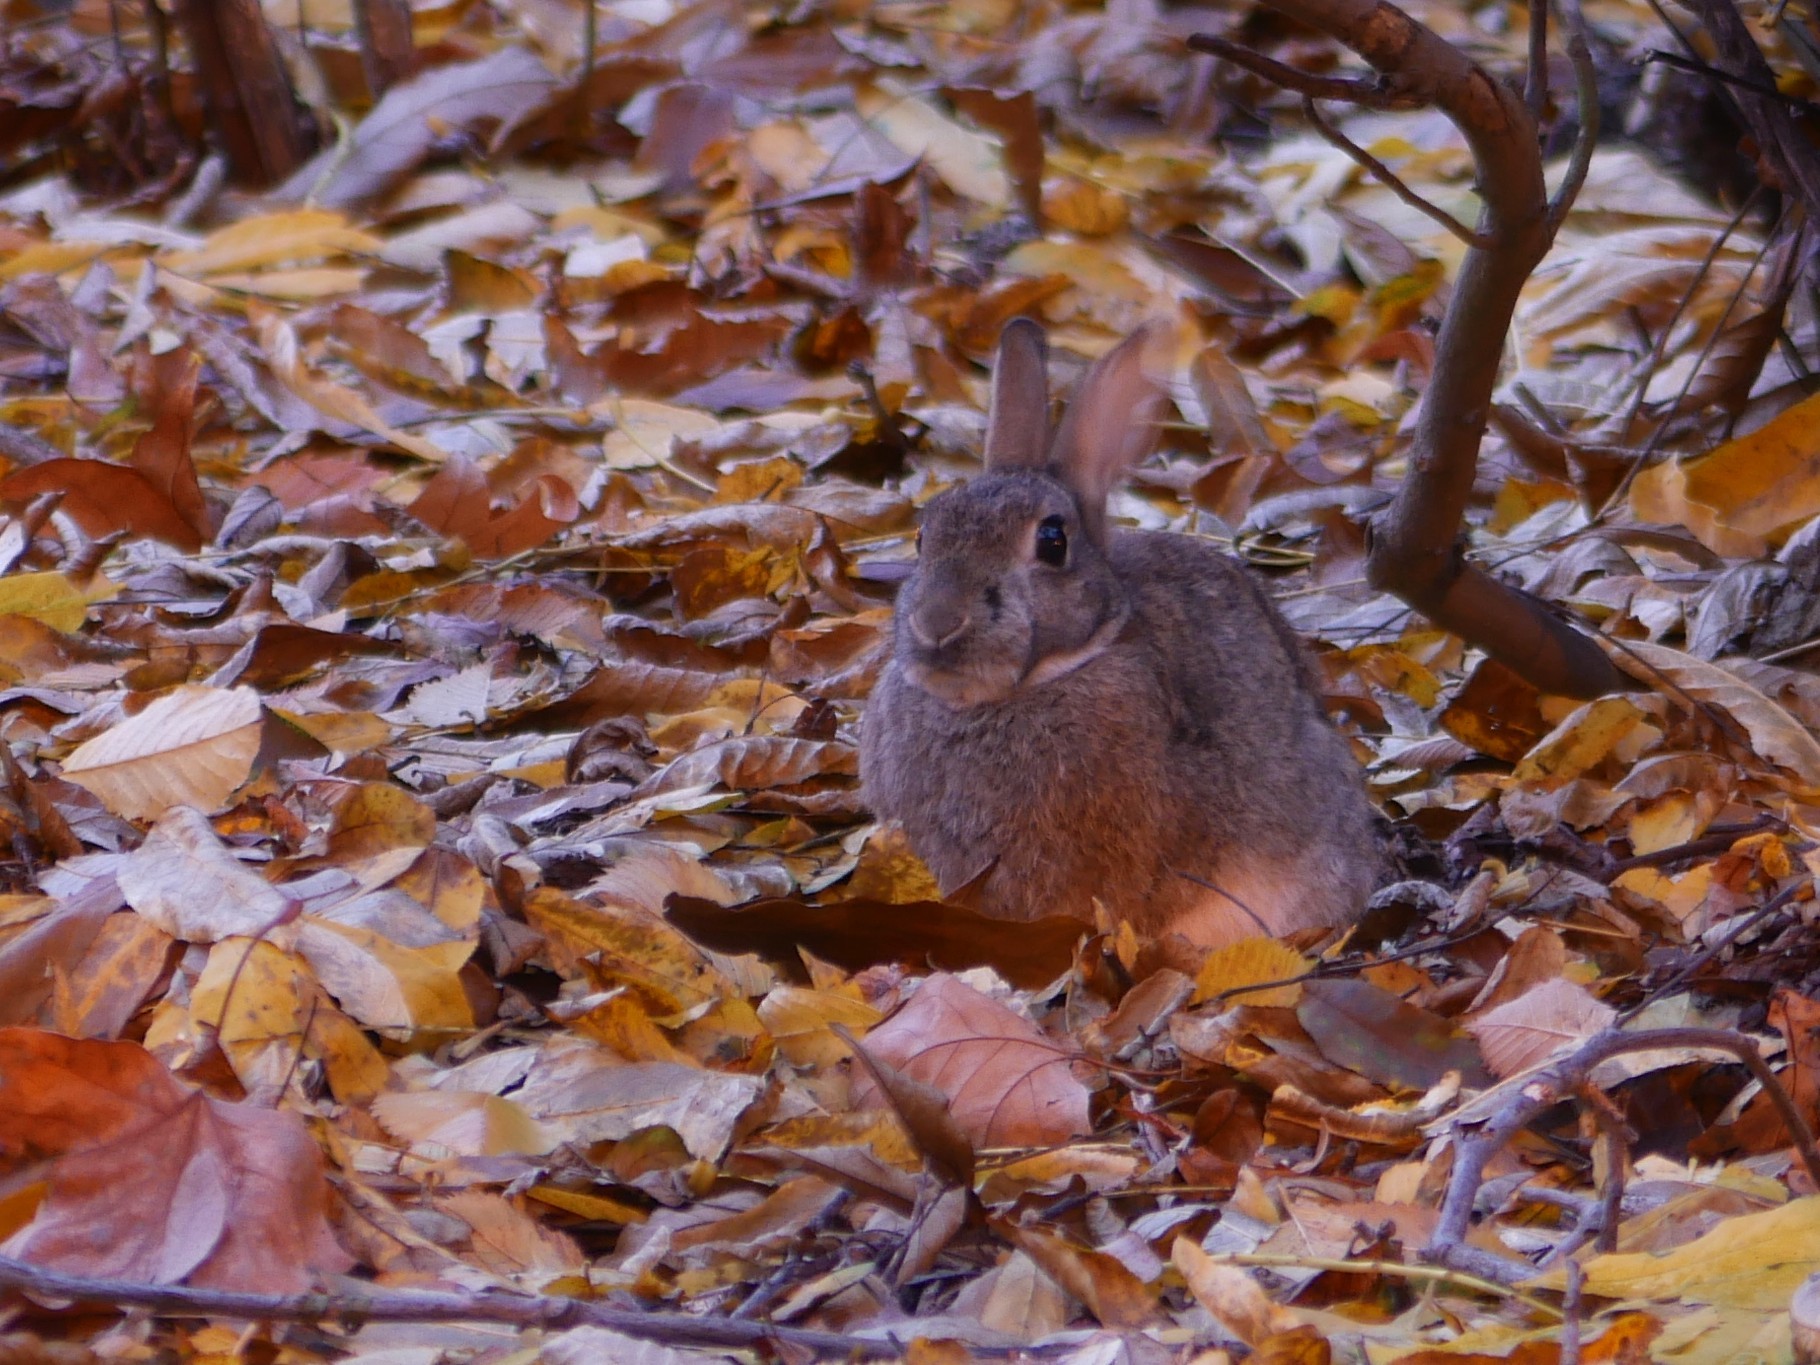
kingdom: Animalia
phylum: Chordata
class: Mammalia
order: Lagomorpha
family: Leporidae
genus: Oryctolagus
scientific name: Oryctolagus cuniculus
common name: European rabbit
